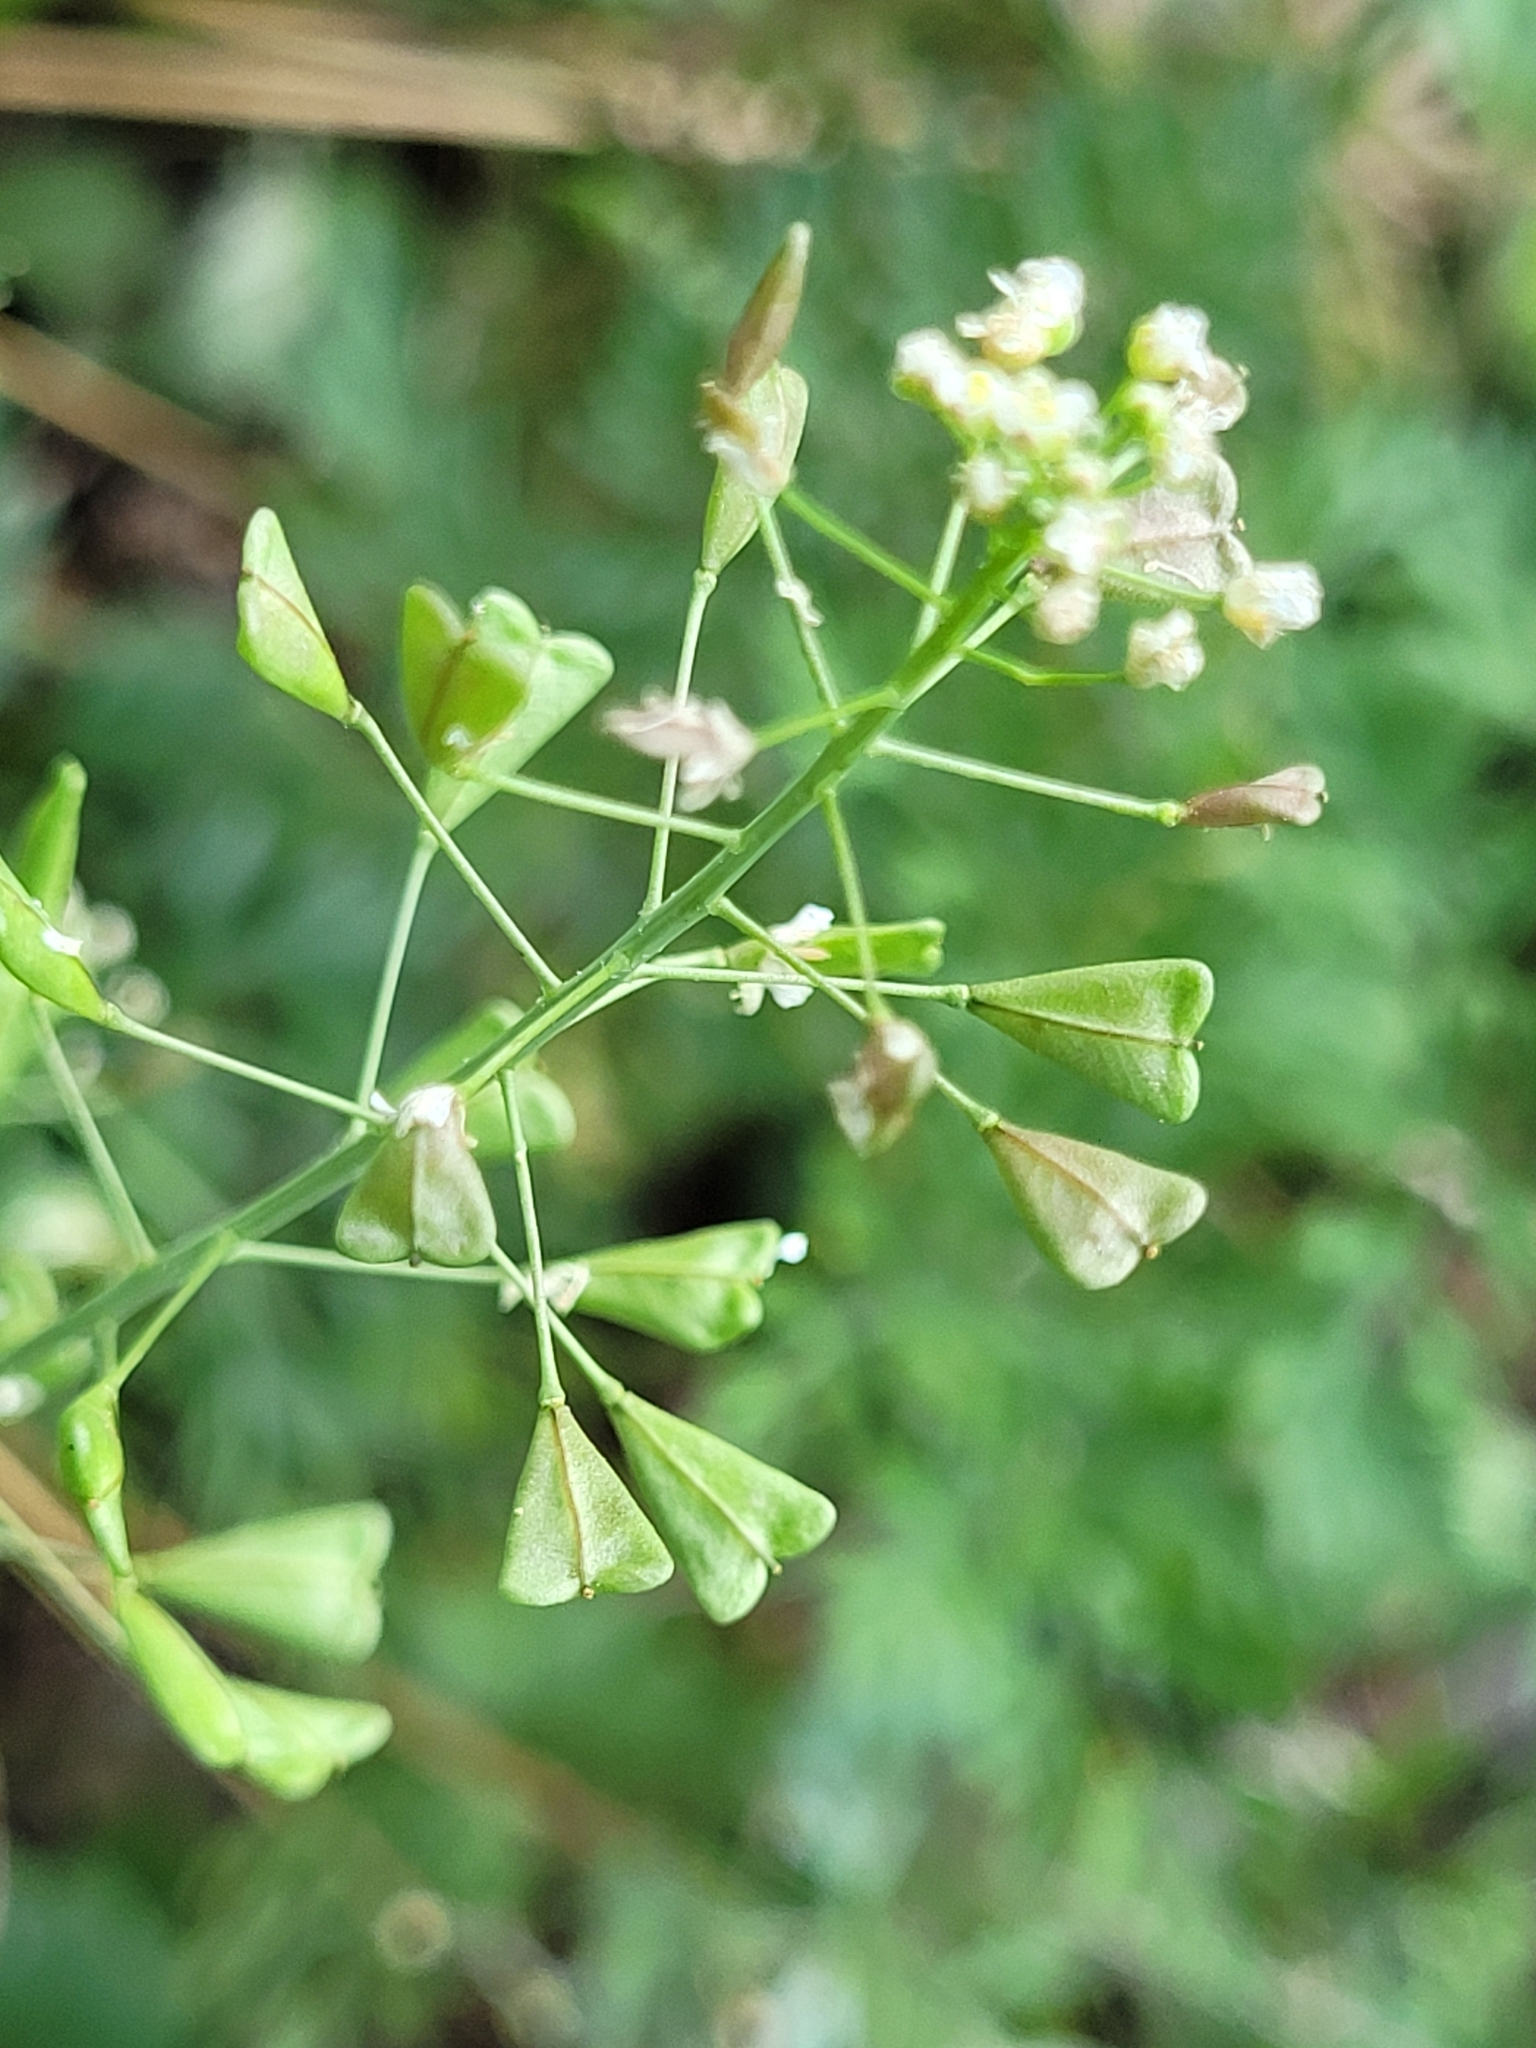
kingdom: Plantae
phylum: Tracheophyta
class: Magnoliopsida
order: Brassicales
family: Brassicaceae
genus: Capsella
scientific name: Capsella bursa-pastoris
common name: Shepherd's purse
